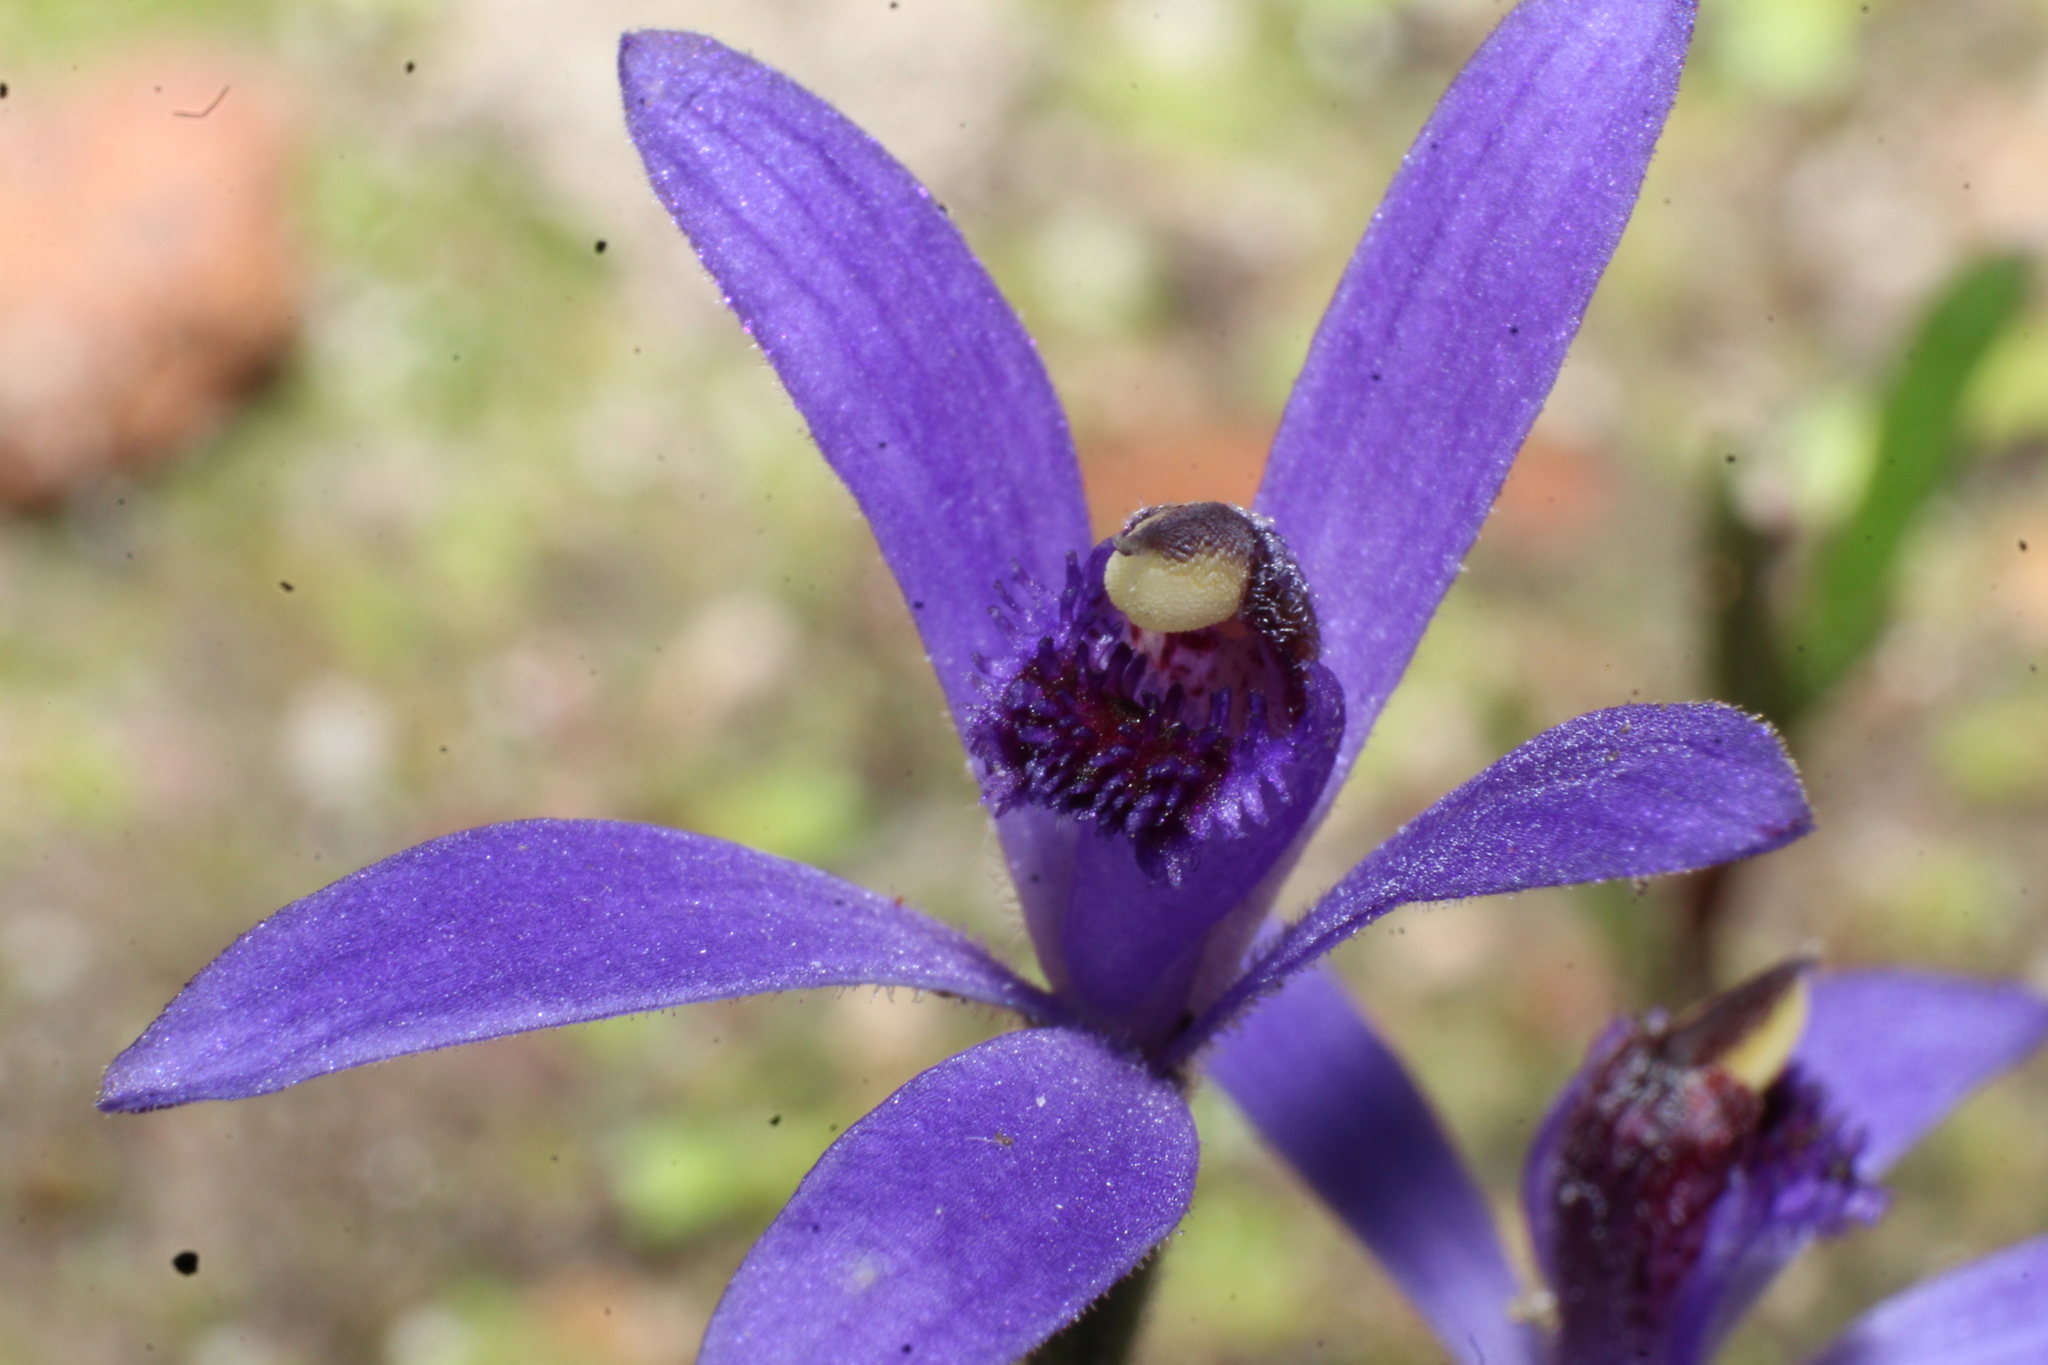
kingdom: Plantae
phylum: Tracheophyta
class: Liliopsida
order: Asparagales
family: Orchidaceae
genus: Pheladenia
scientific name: Pheladenia deformis
